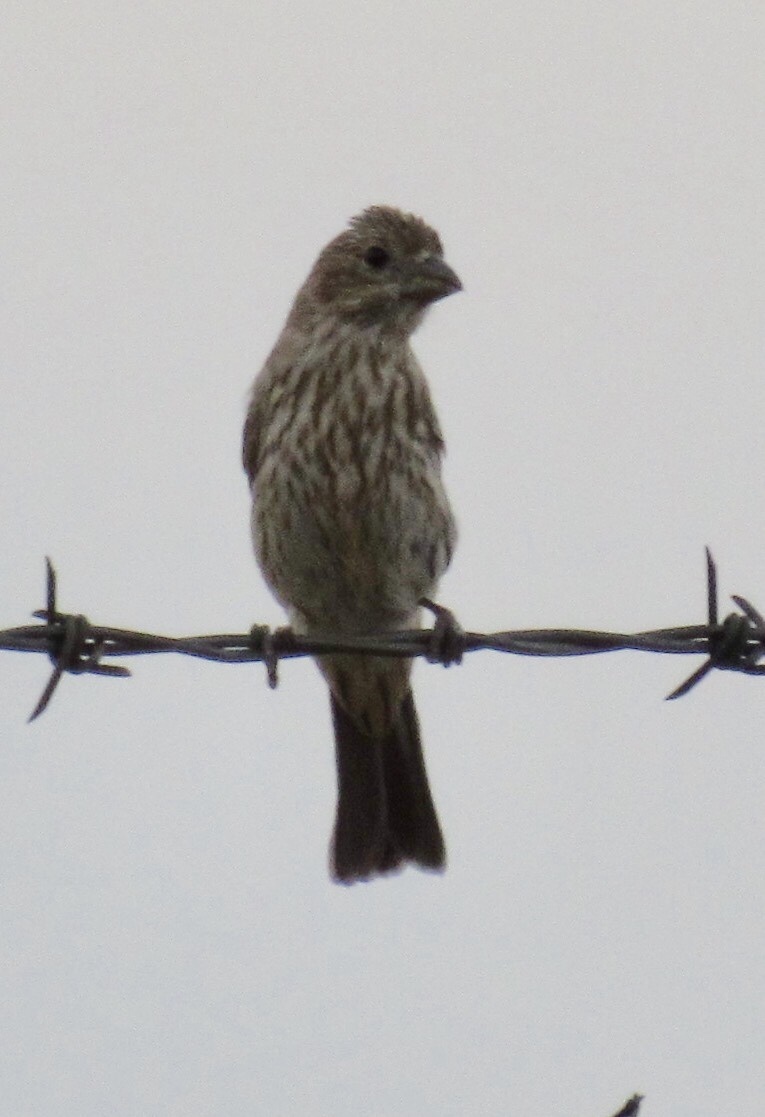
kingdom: Animalia
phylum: Chordata
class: Aves
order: Passeriformes
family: Fringillidae
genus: Haemorhous
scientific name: Haemorhous mexicanus
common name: House finch
